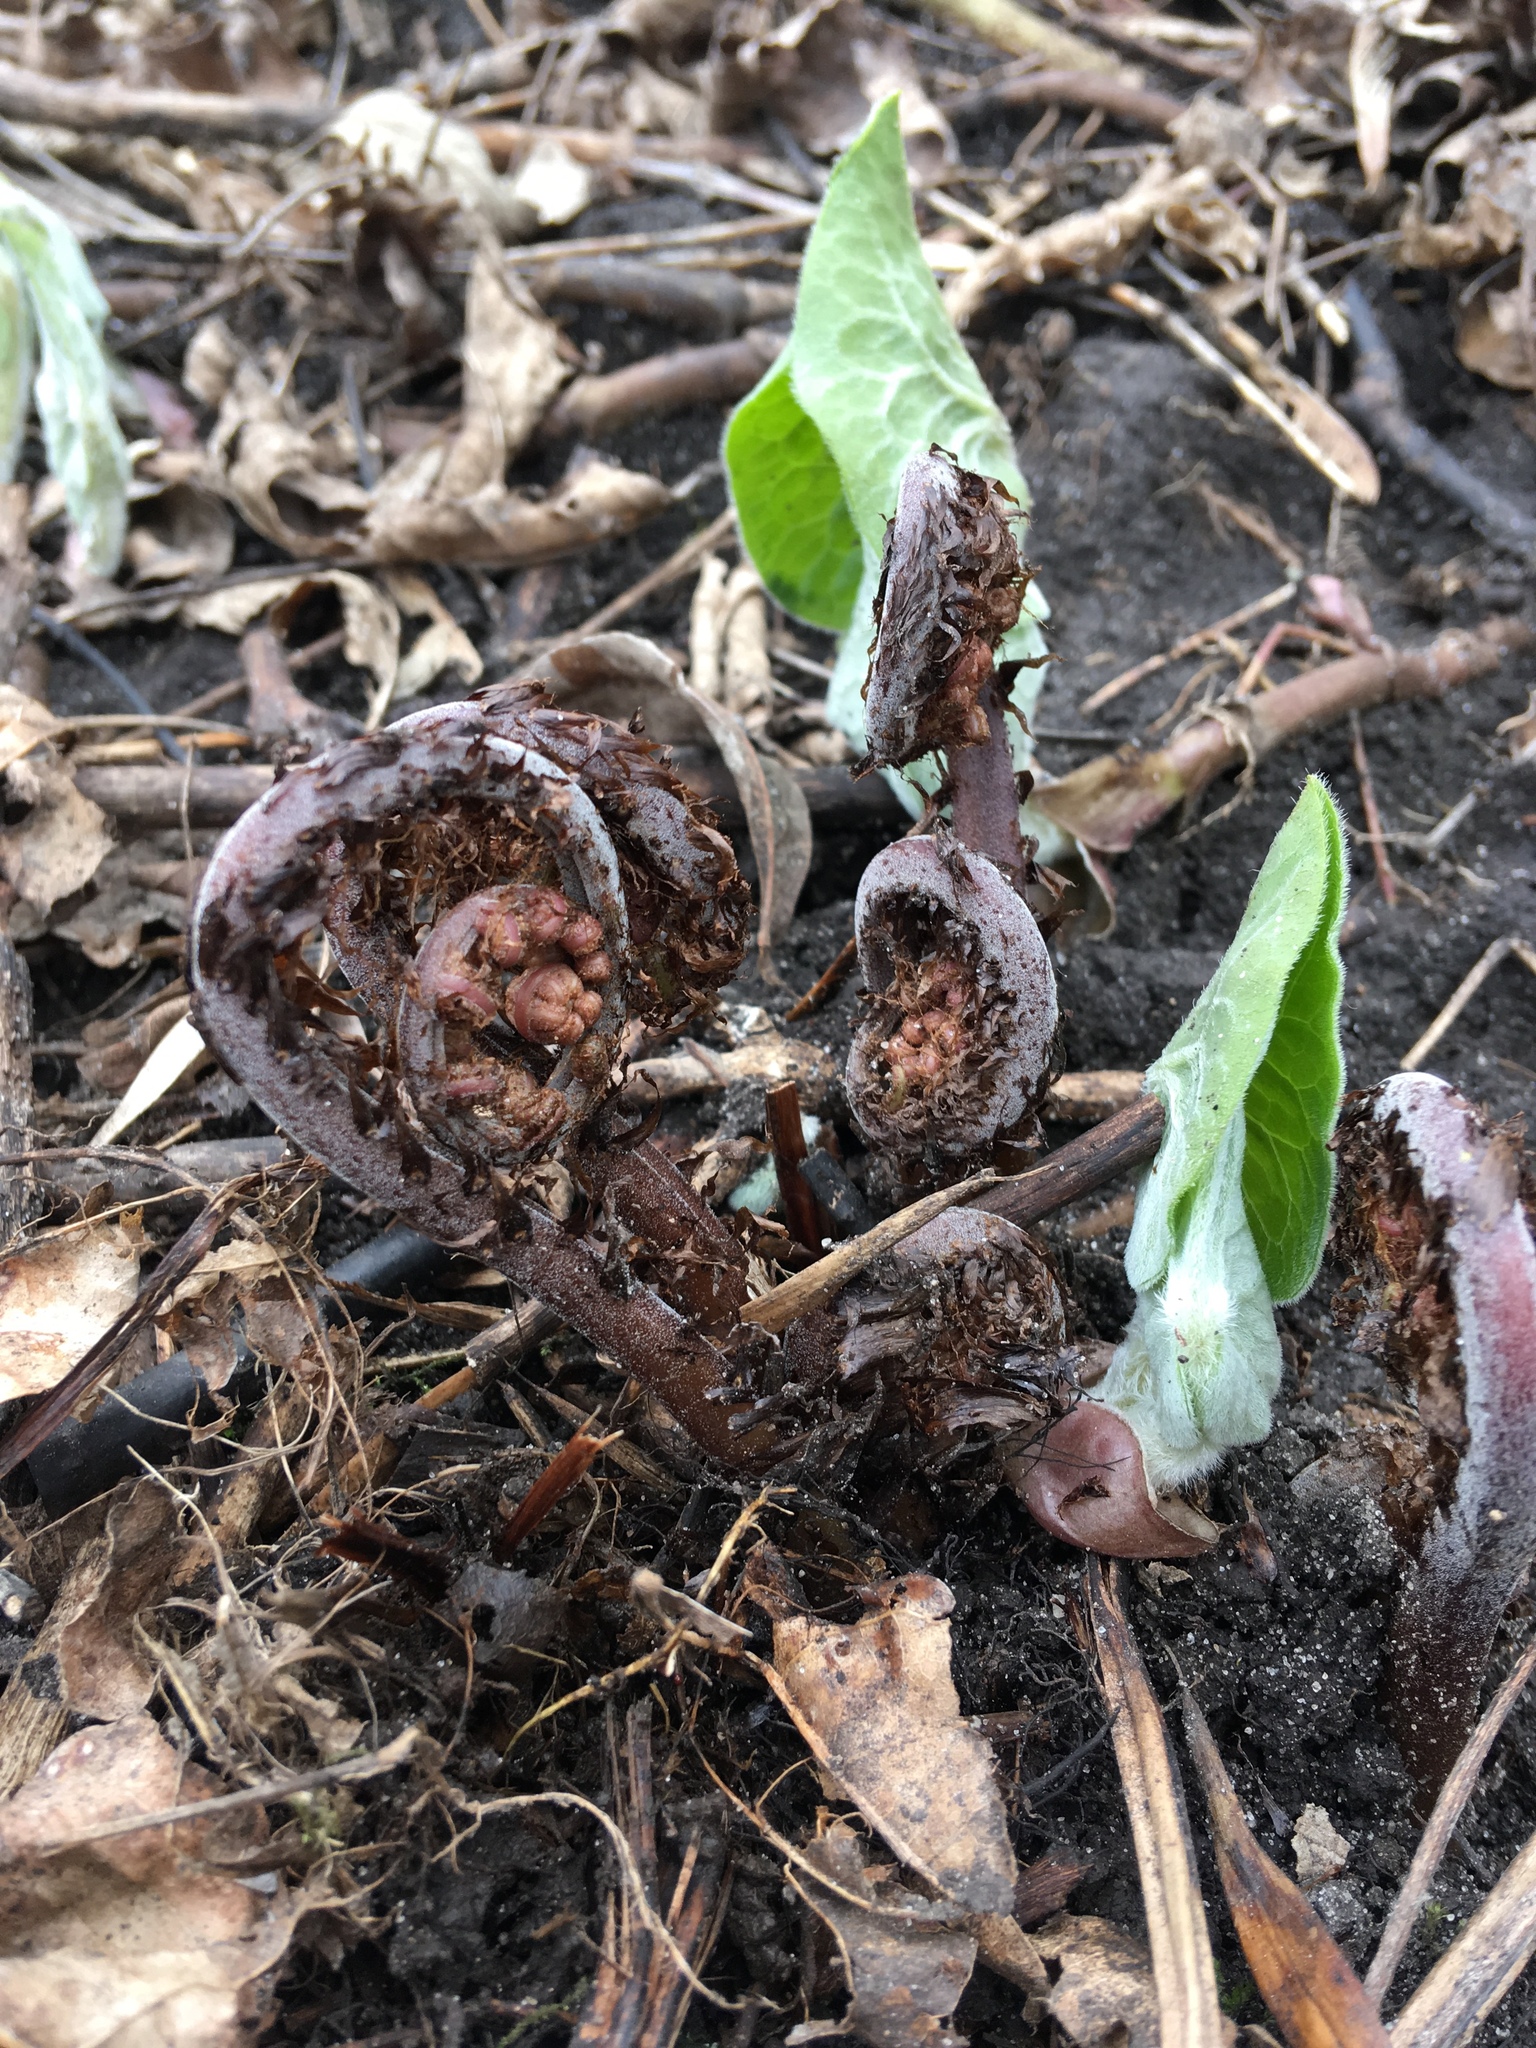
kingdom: Plantae
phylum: Tracheophyta
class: Polypodiopsida
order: Polypodiales
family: Athyriaceae
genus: Athyrium
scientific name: Athyrium angustum
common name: Northern lady fern
